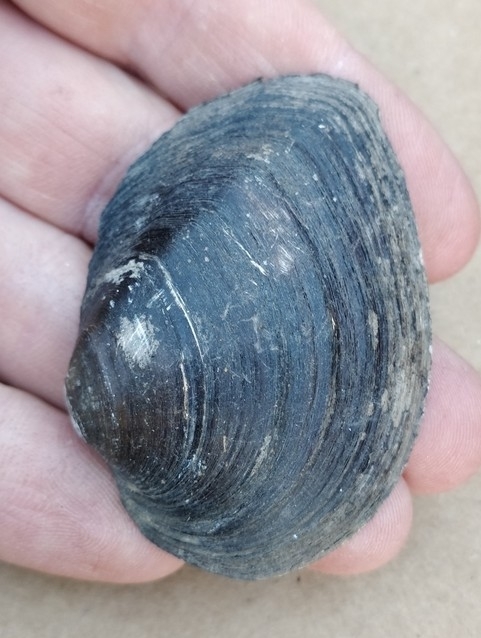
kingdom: Animalia
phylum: Mollusca
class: Bivalvia
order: Unionida
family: Unionidae
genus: Fusconaia
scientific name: Fusconaia flava
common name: Wabash pigtoe
